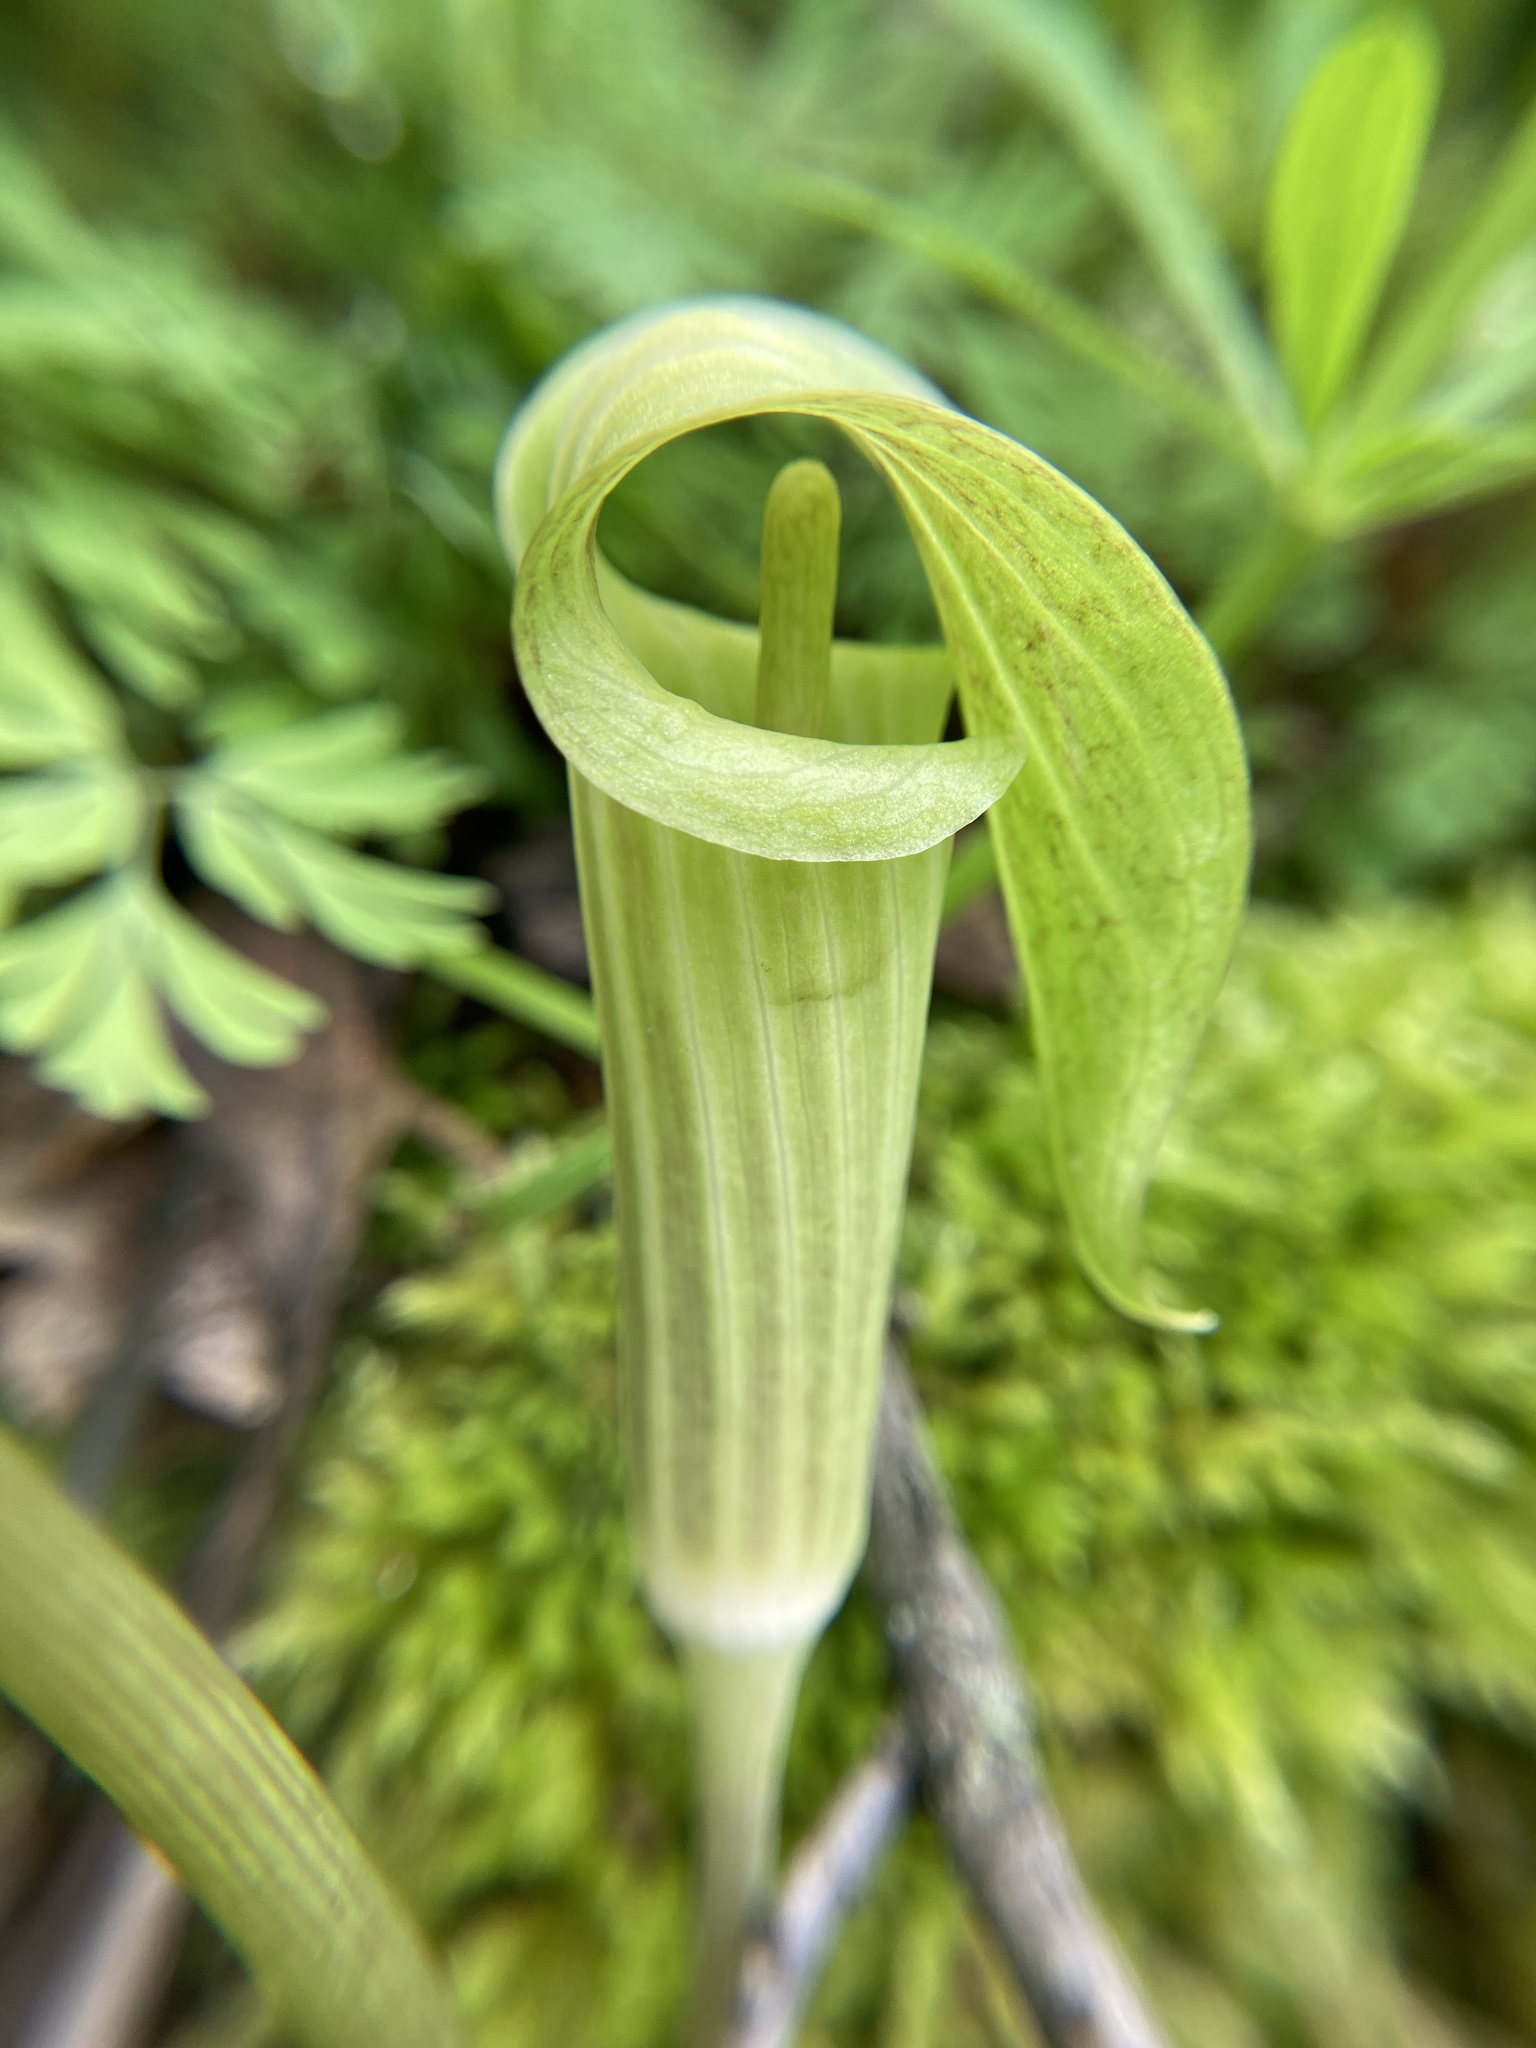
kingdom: Plantae
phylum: Tracheophyta
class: Liliopsida
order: Alismatales
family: Araceae
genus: Arisaema
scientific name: Arisaema triphyllum
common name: Jack-in-the-pulpit
